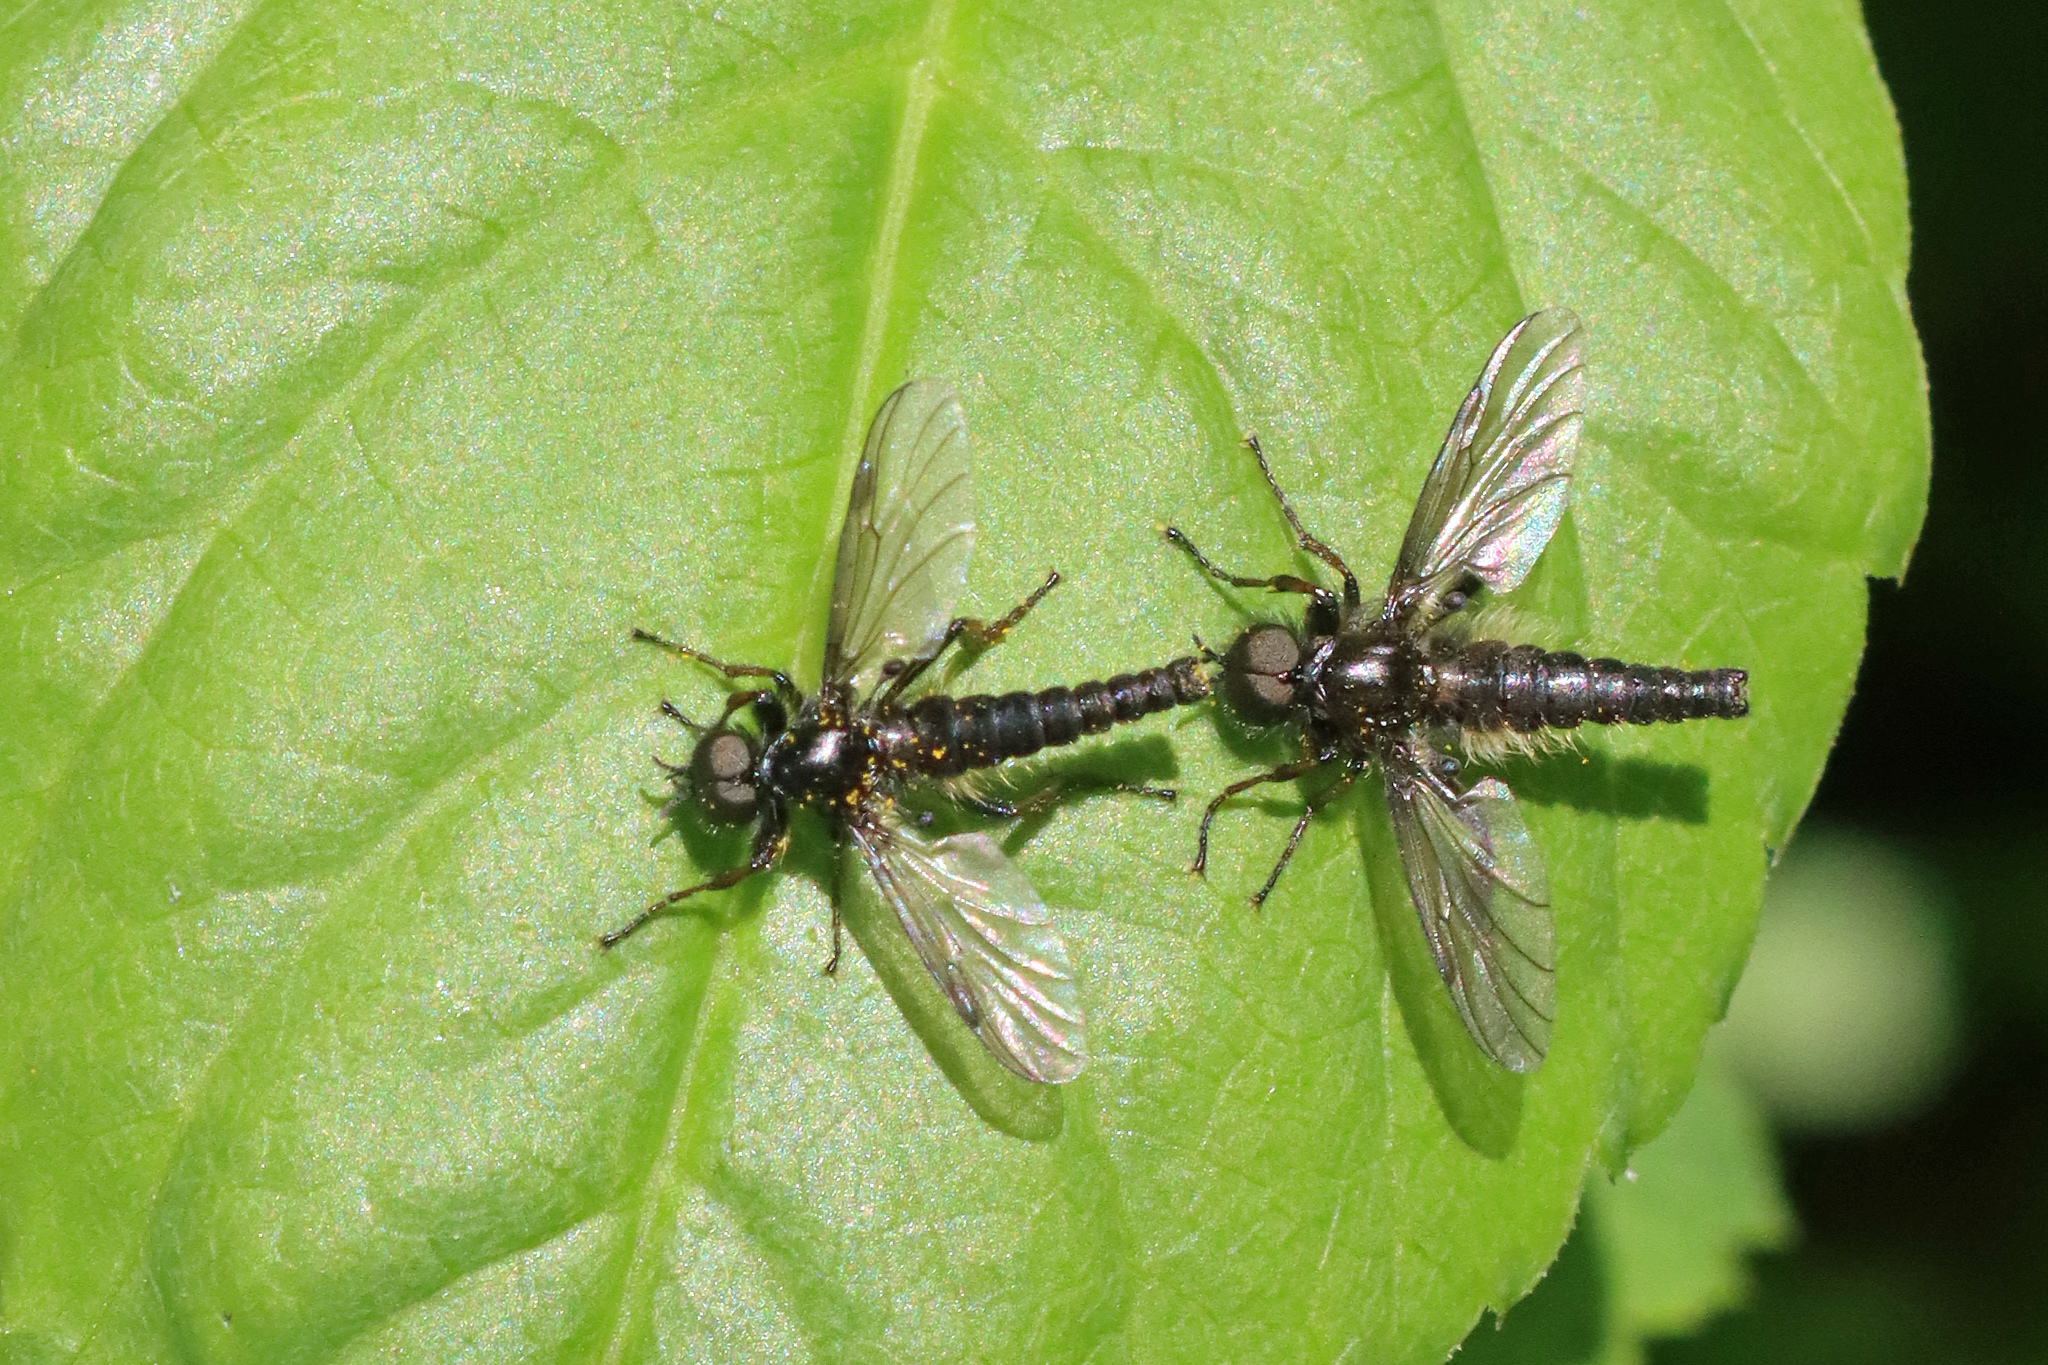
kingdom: Animalia
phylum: Arthropoda
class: Insecta
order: Diptera
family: Bibionidae
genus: Bibio
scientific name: Bibio
